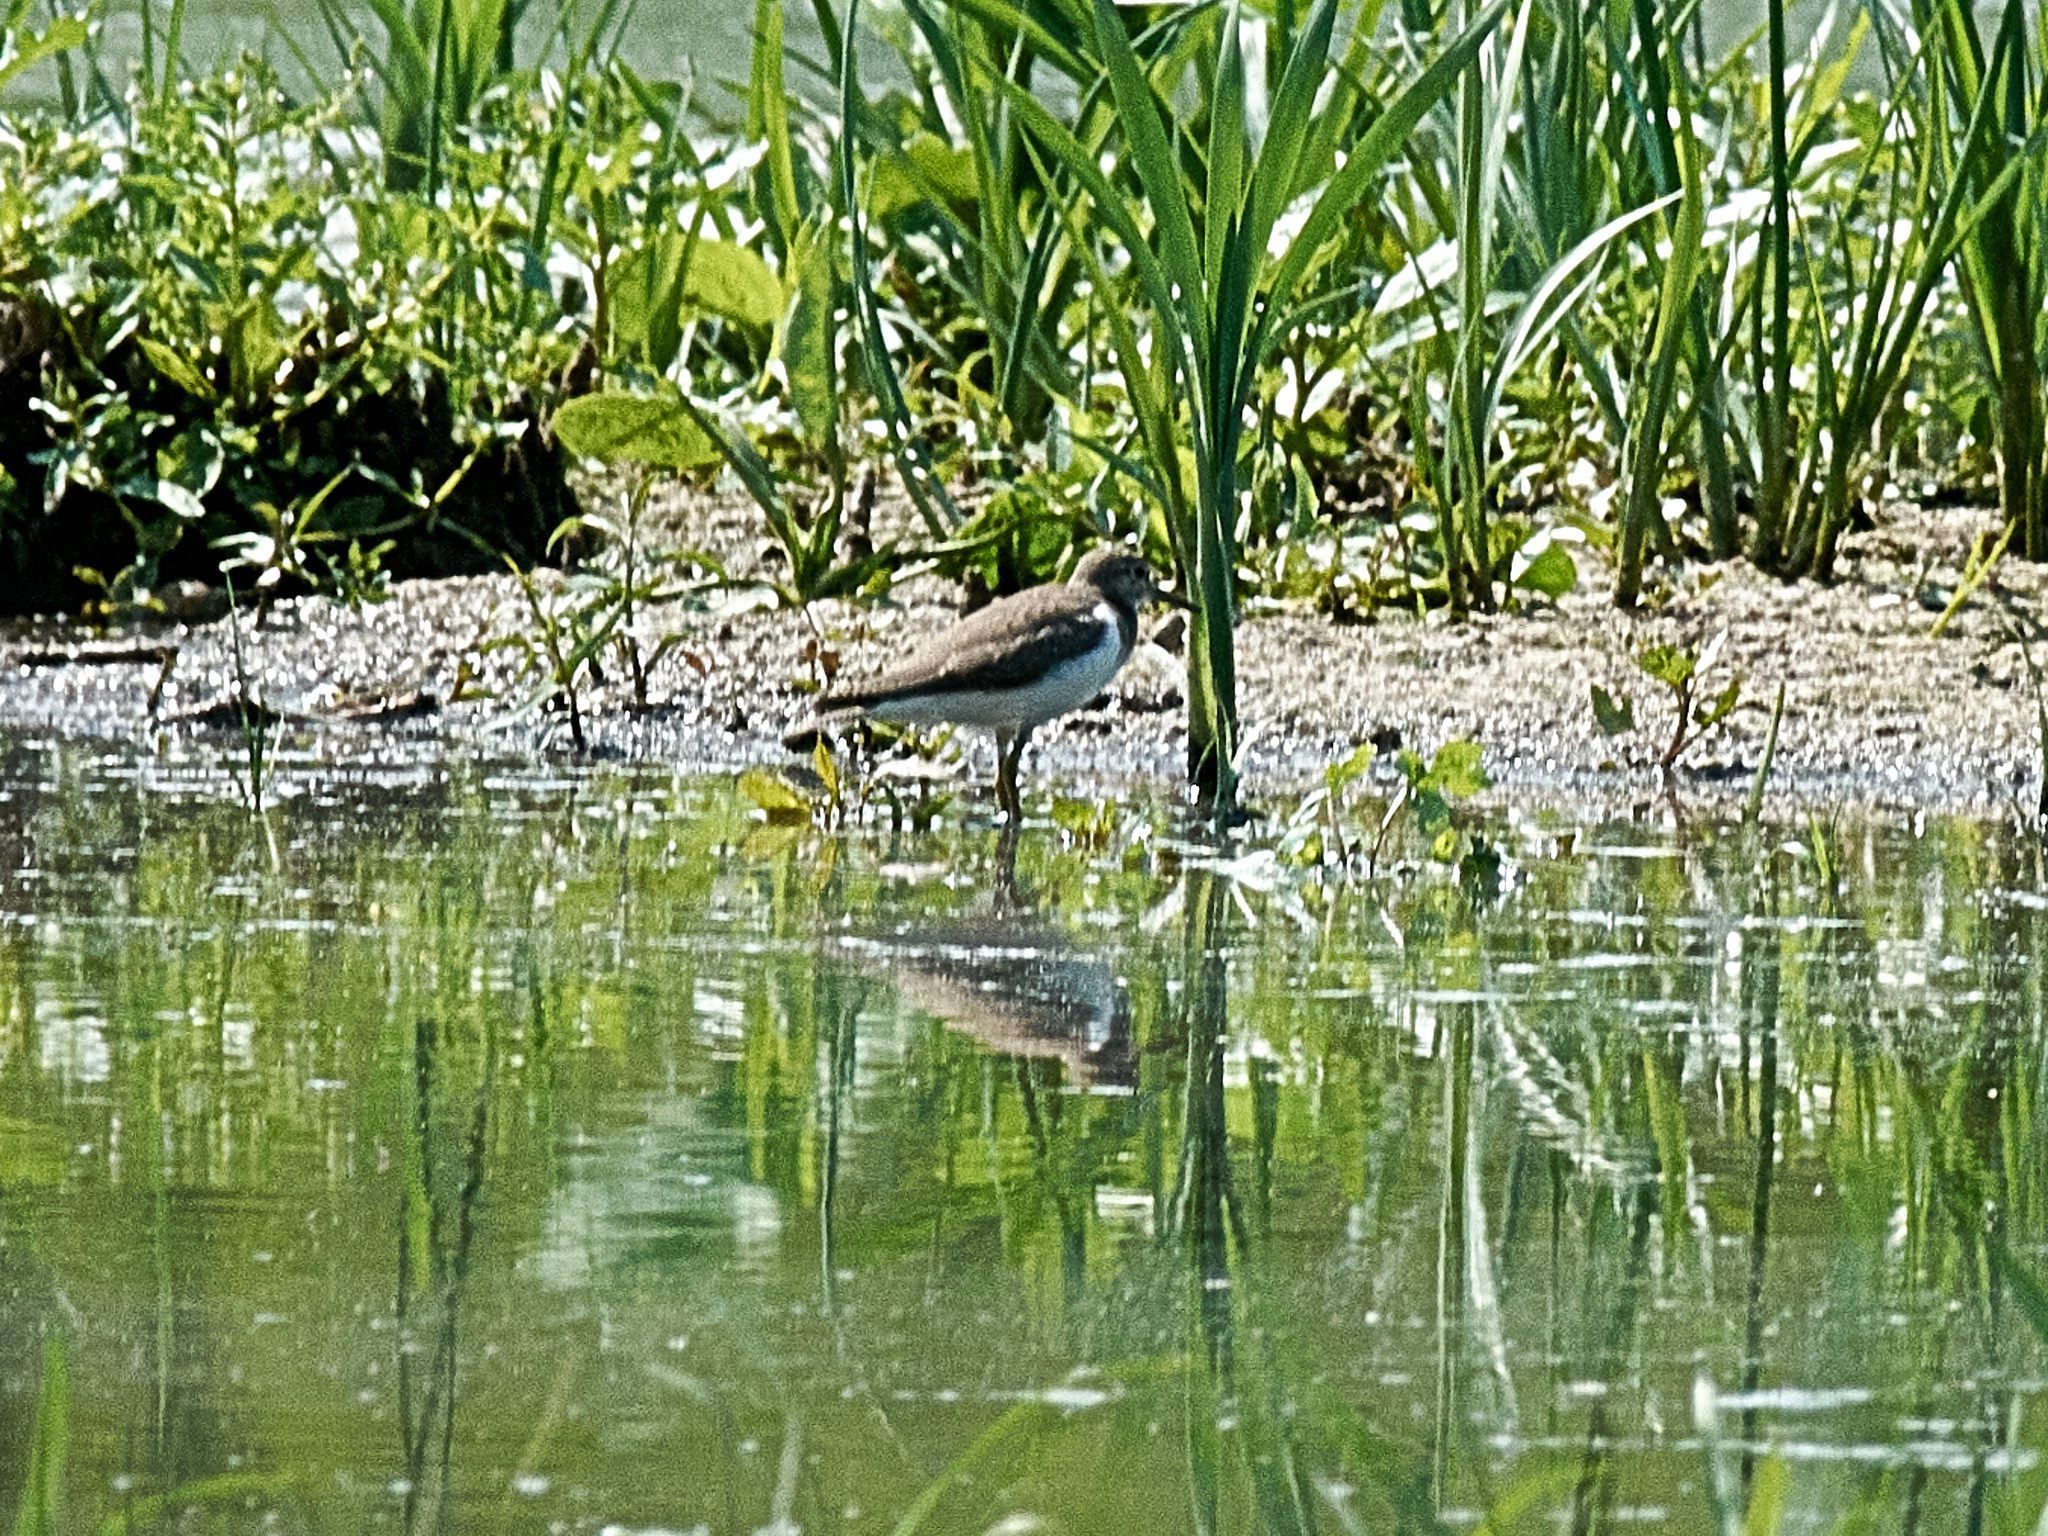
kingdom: Animalia
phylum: Chordata
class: Aves
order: Charadriiformes
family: Scolopacidae
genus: Actitis
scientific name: Actitis hypoleucos
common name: Common sandpiper
